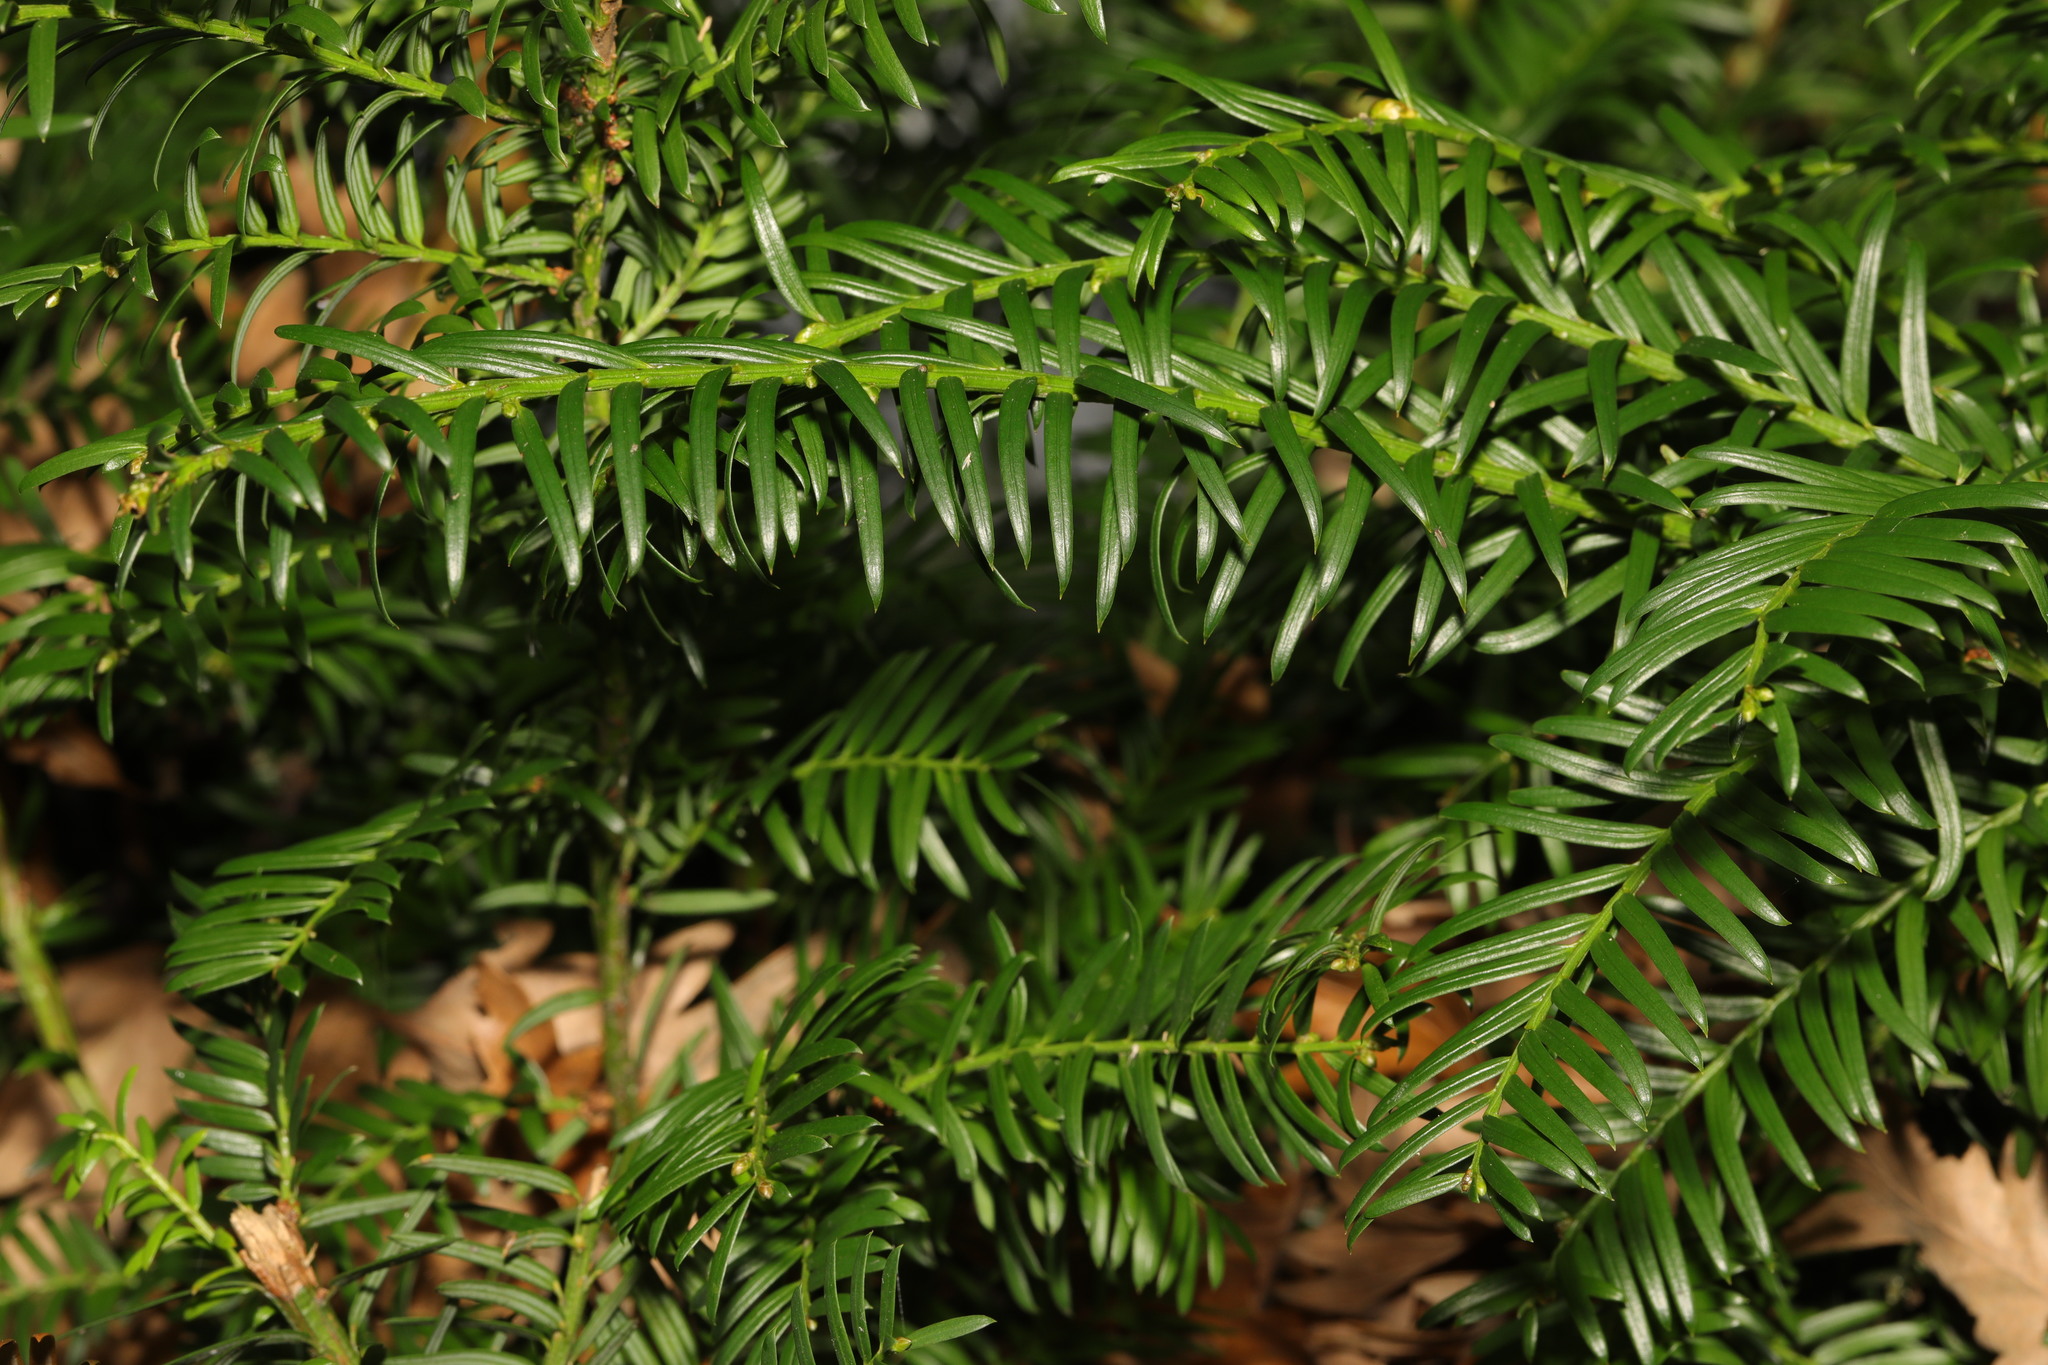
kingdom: Plantae
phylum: Tracheophyta
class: Pinopsida
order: Pinales
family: Taxaceae
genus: Taxus
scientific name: Taxus baccata
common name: Yew
